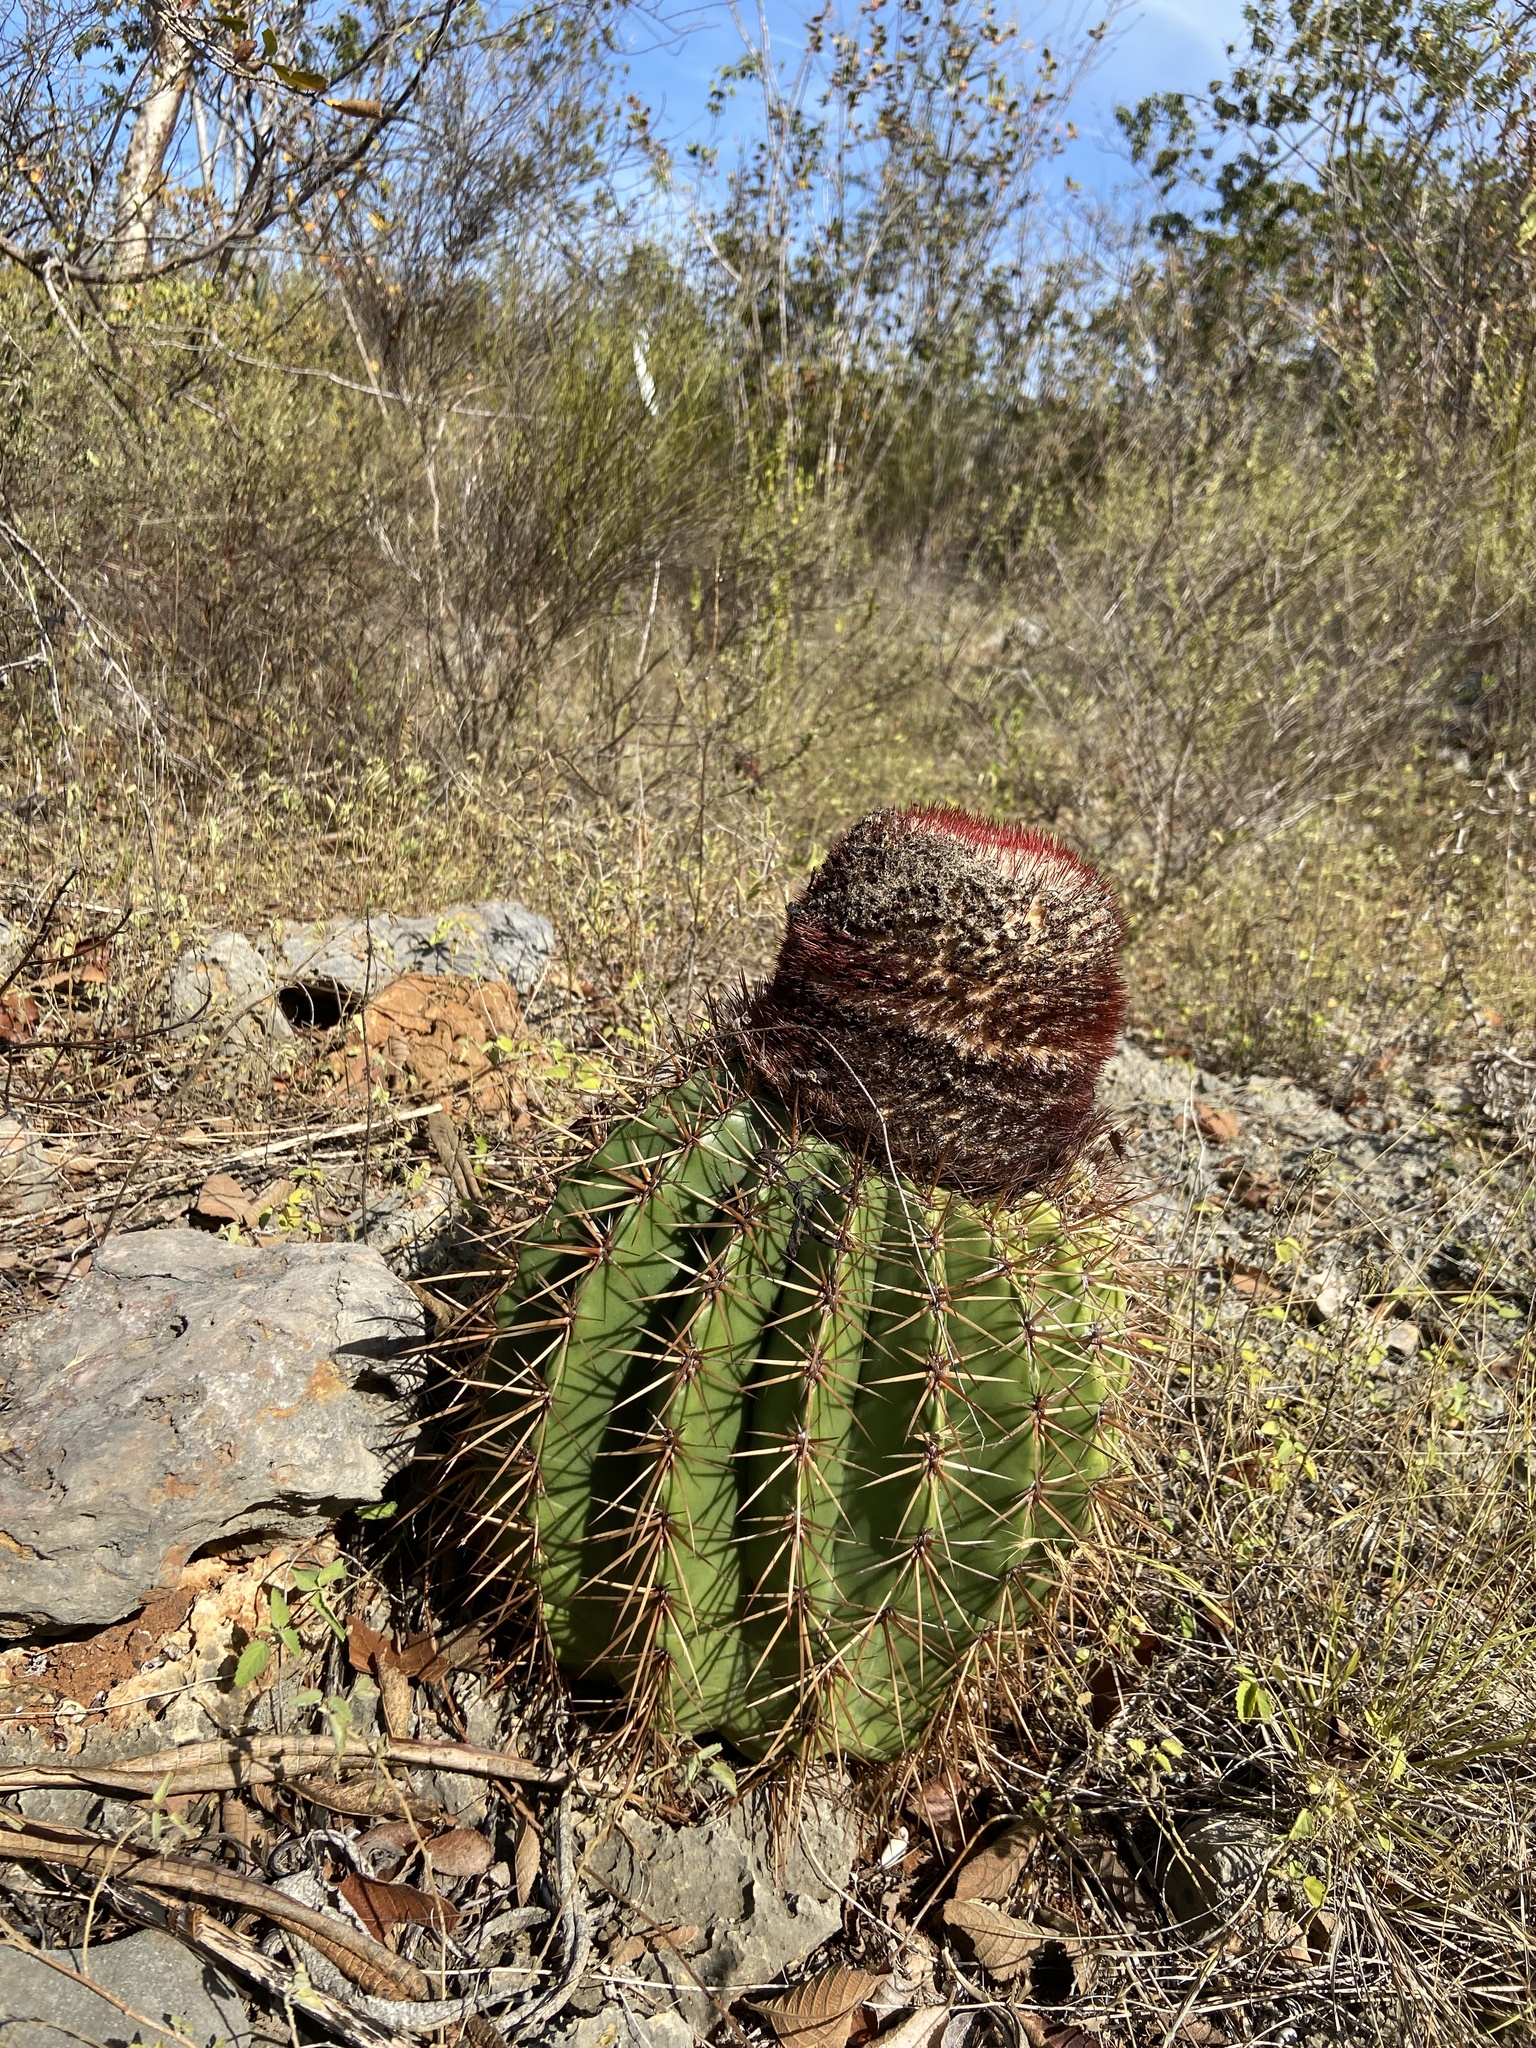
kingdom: Plantae
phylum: Tracheophyta
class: Magnoliopsida
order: Caryophyllales
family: Cactaceae
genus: Melocactus
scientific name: Melocactus intortus
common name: Barrel cactus
